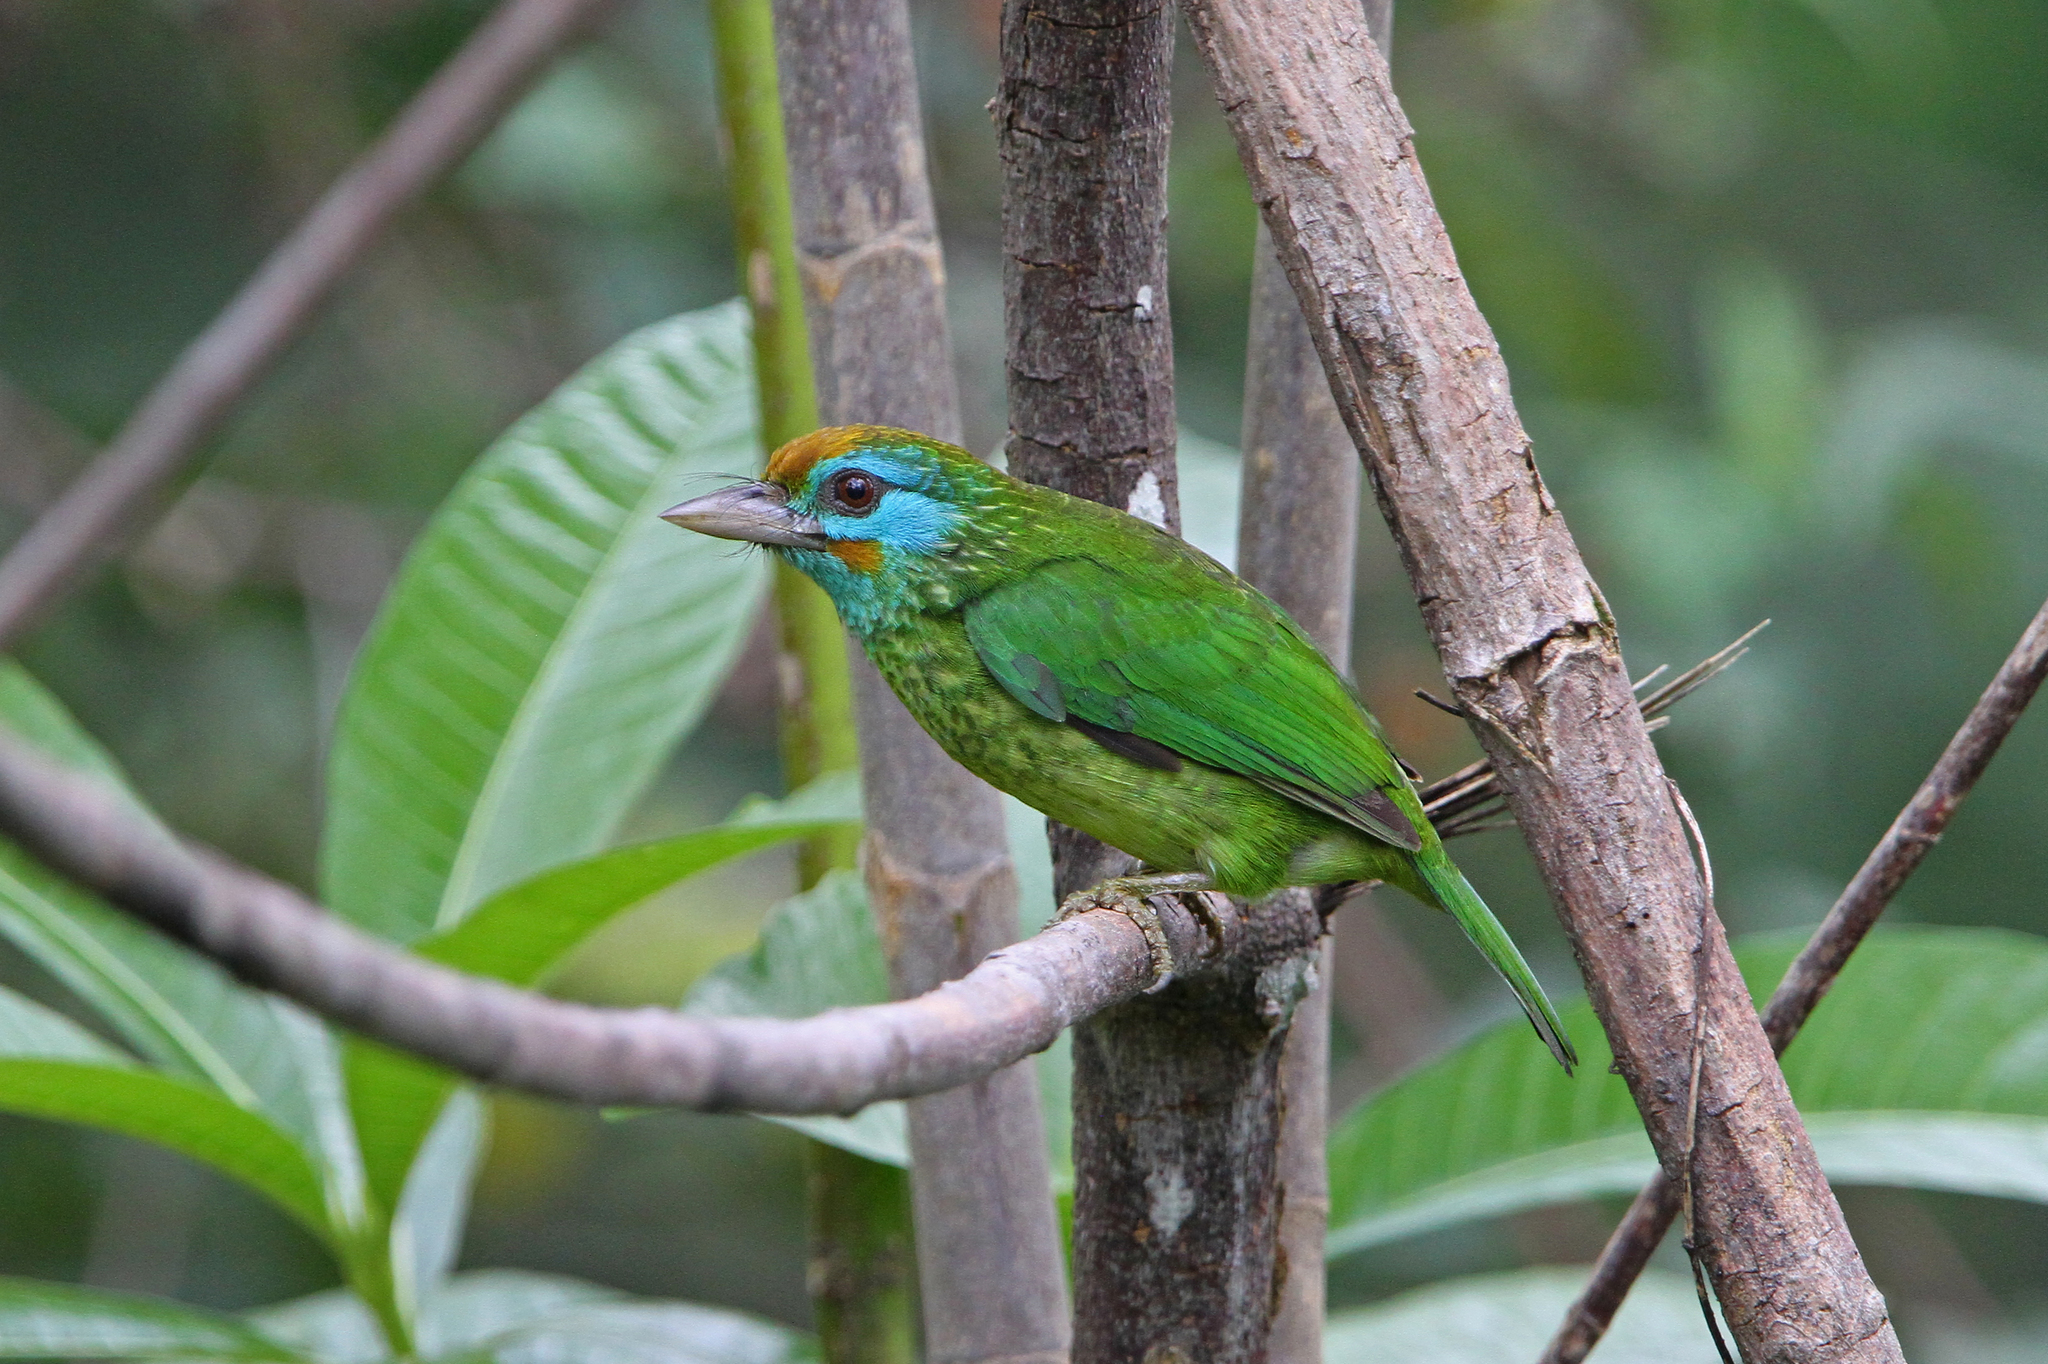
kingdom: Animalia
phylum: Chordata
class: Aves
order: Piciformes
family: Megalaimidae
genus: Psilopogon
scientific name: Psilopogon flavifrons
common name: Yellow-fronted barbet
